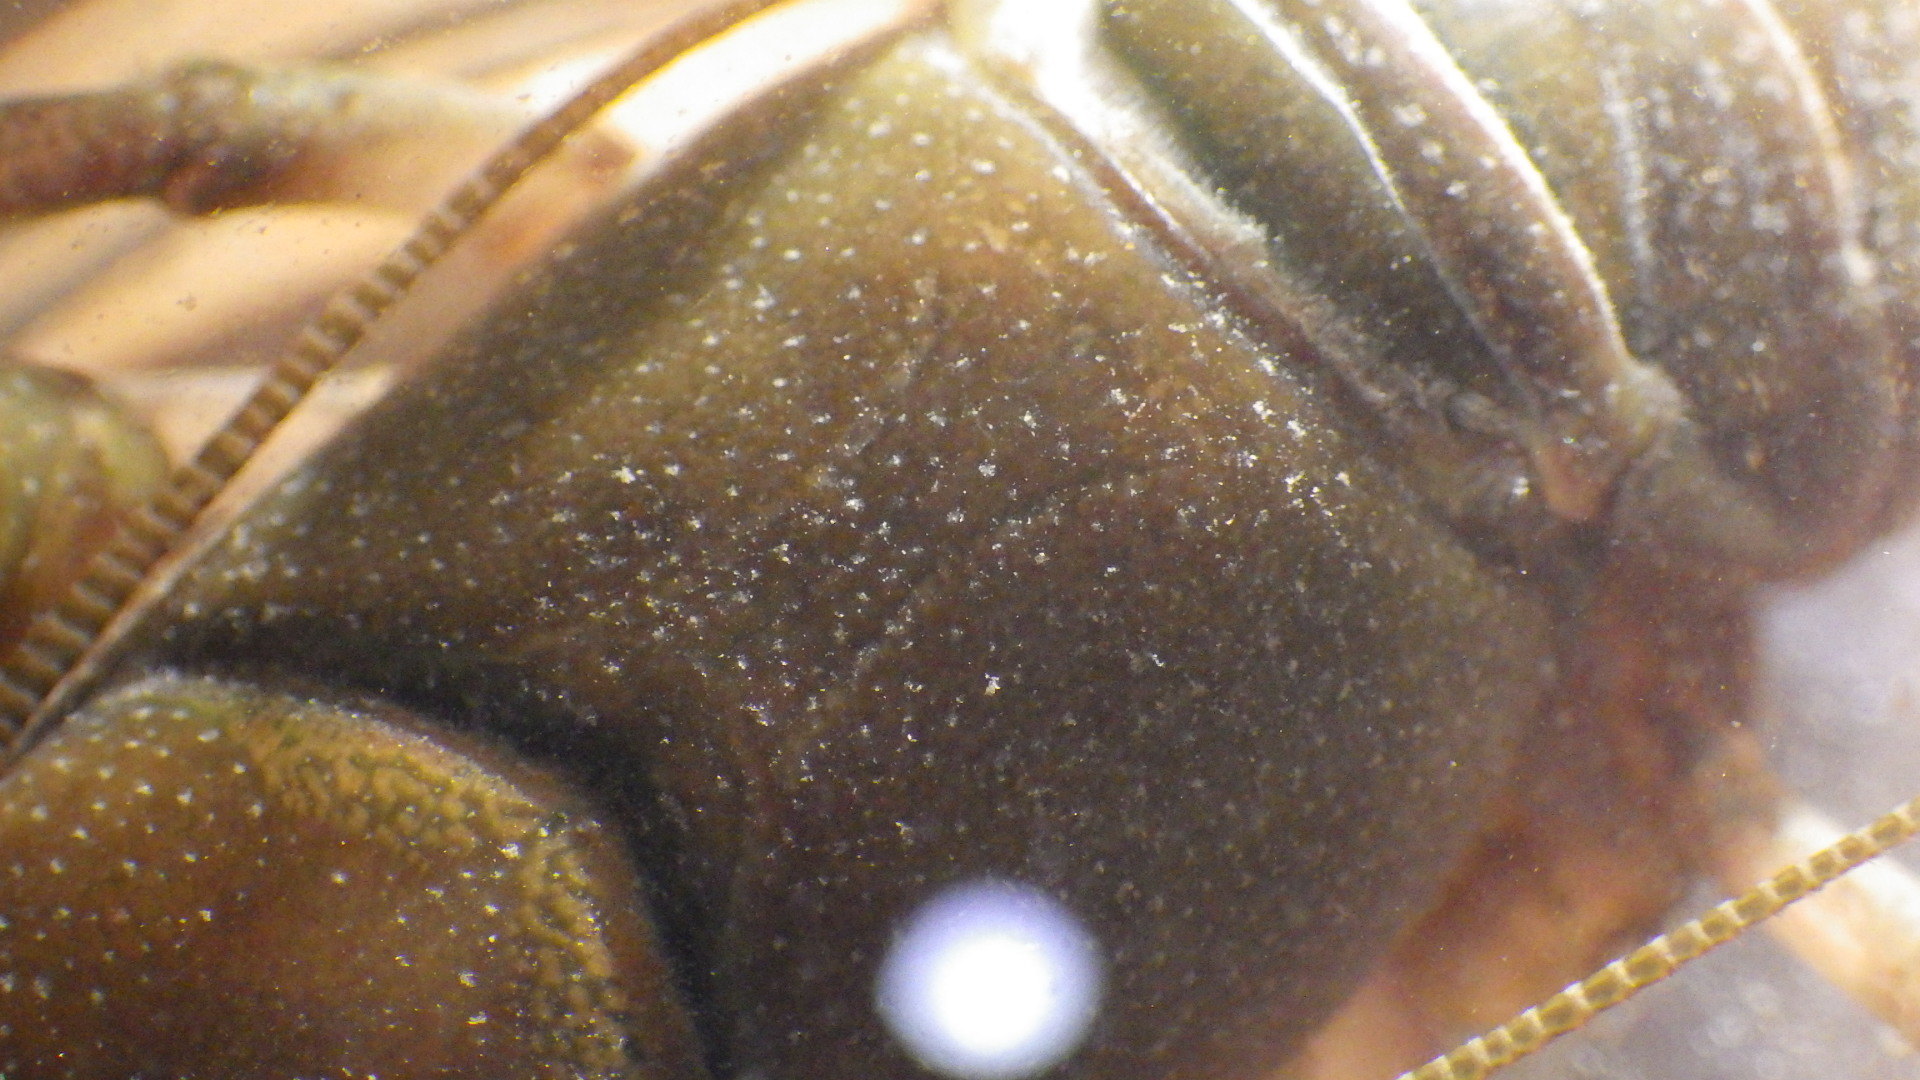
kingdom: Animalia
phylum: Arthropoda
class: Malacostraca
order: Decapoda
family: Cambaridae
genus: Cambarus
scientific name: Cambarus bartonii
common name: Appalachian brook crayfish
